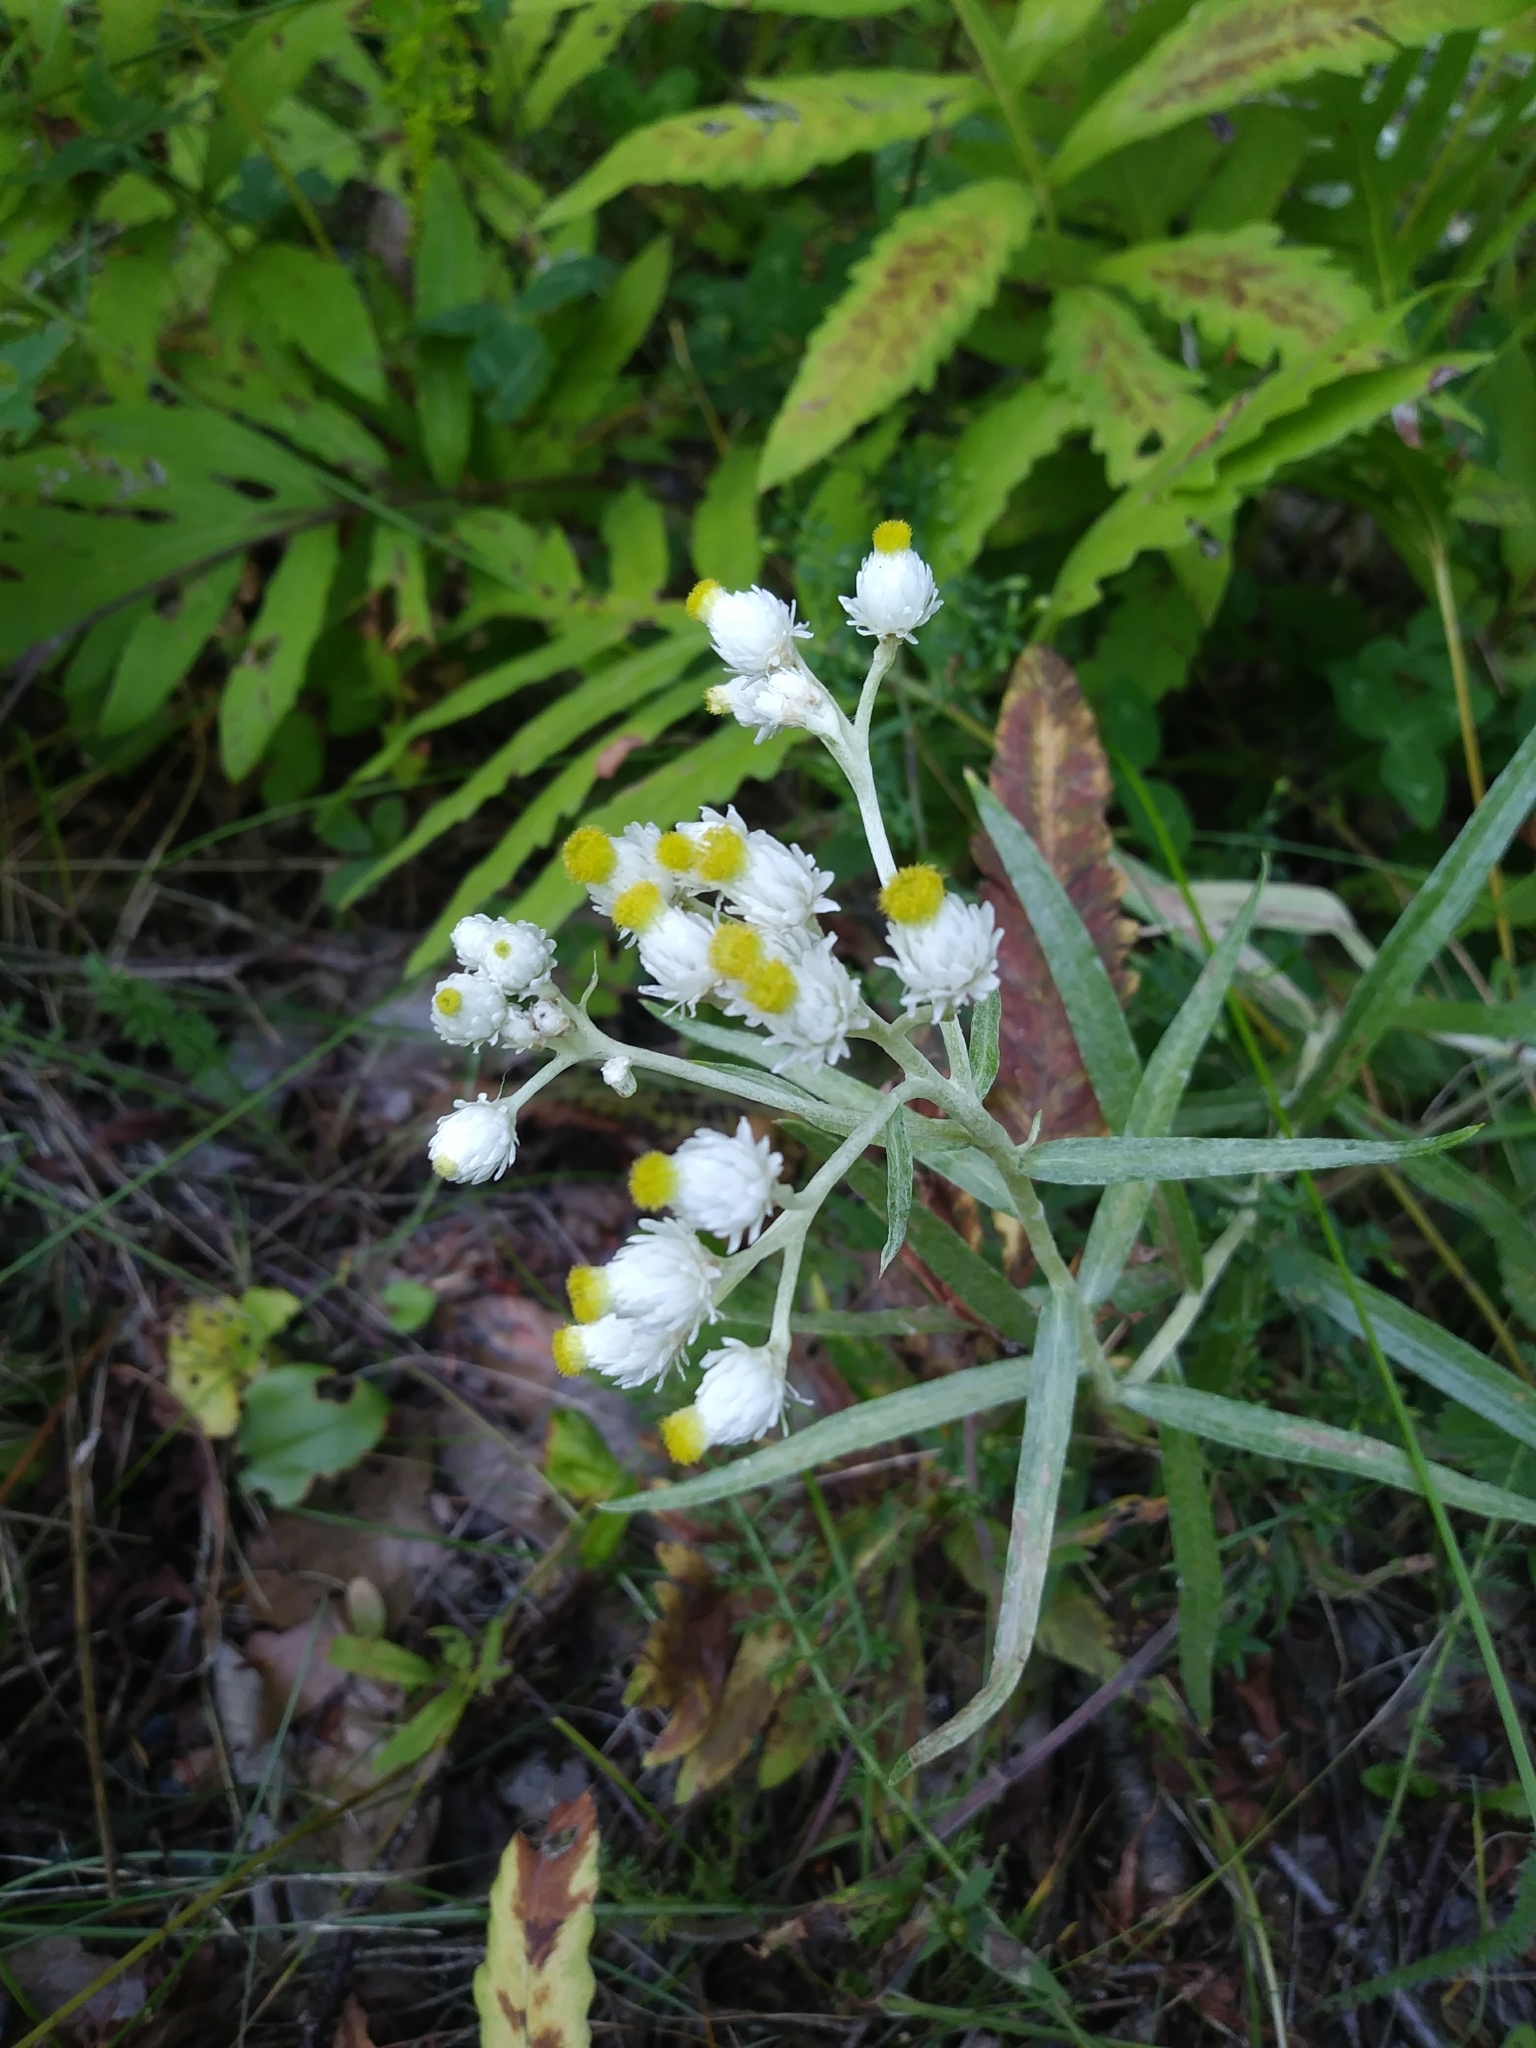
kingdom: Plantae
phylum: Tracheophyta
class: Magnoliopsida
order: Asterales
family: Asteraceae
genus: Anaphalis
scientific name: Anaphalis margaritacea
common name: Pearly everlasting
